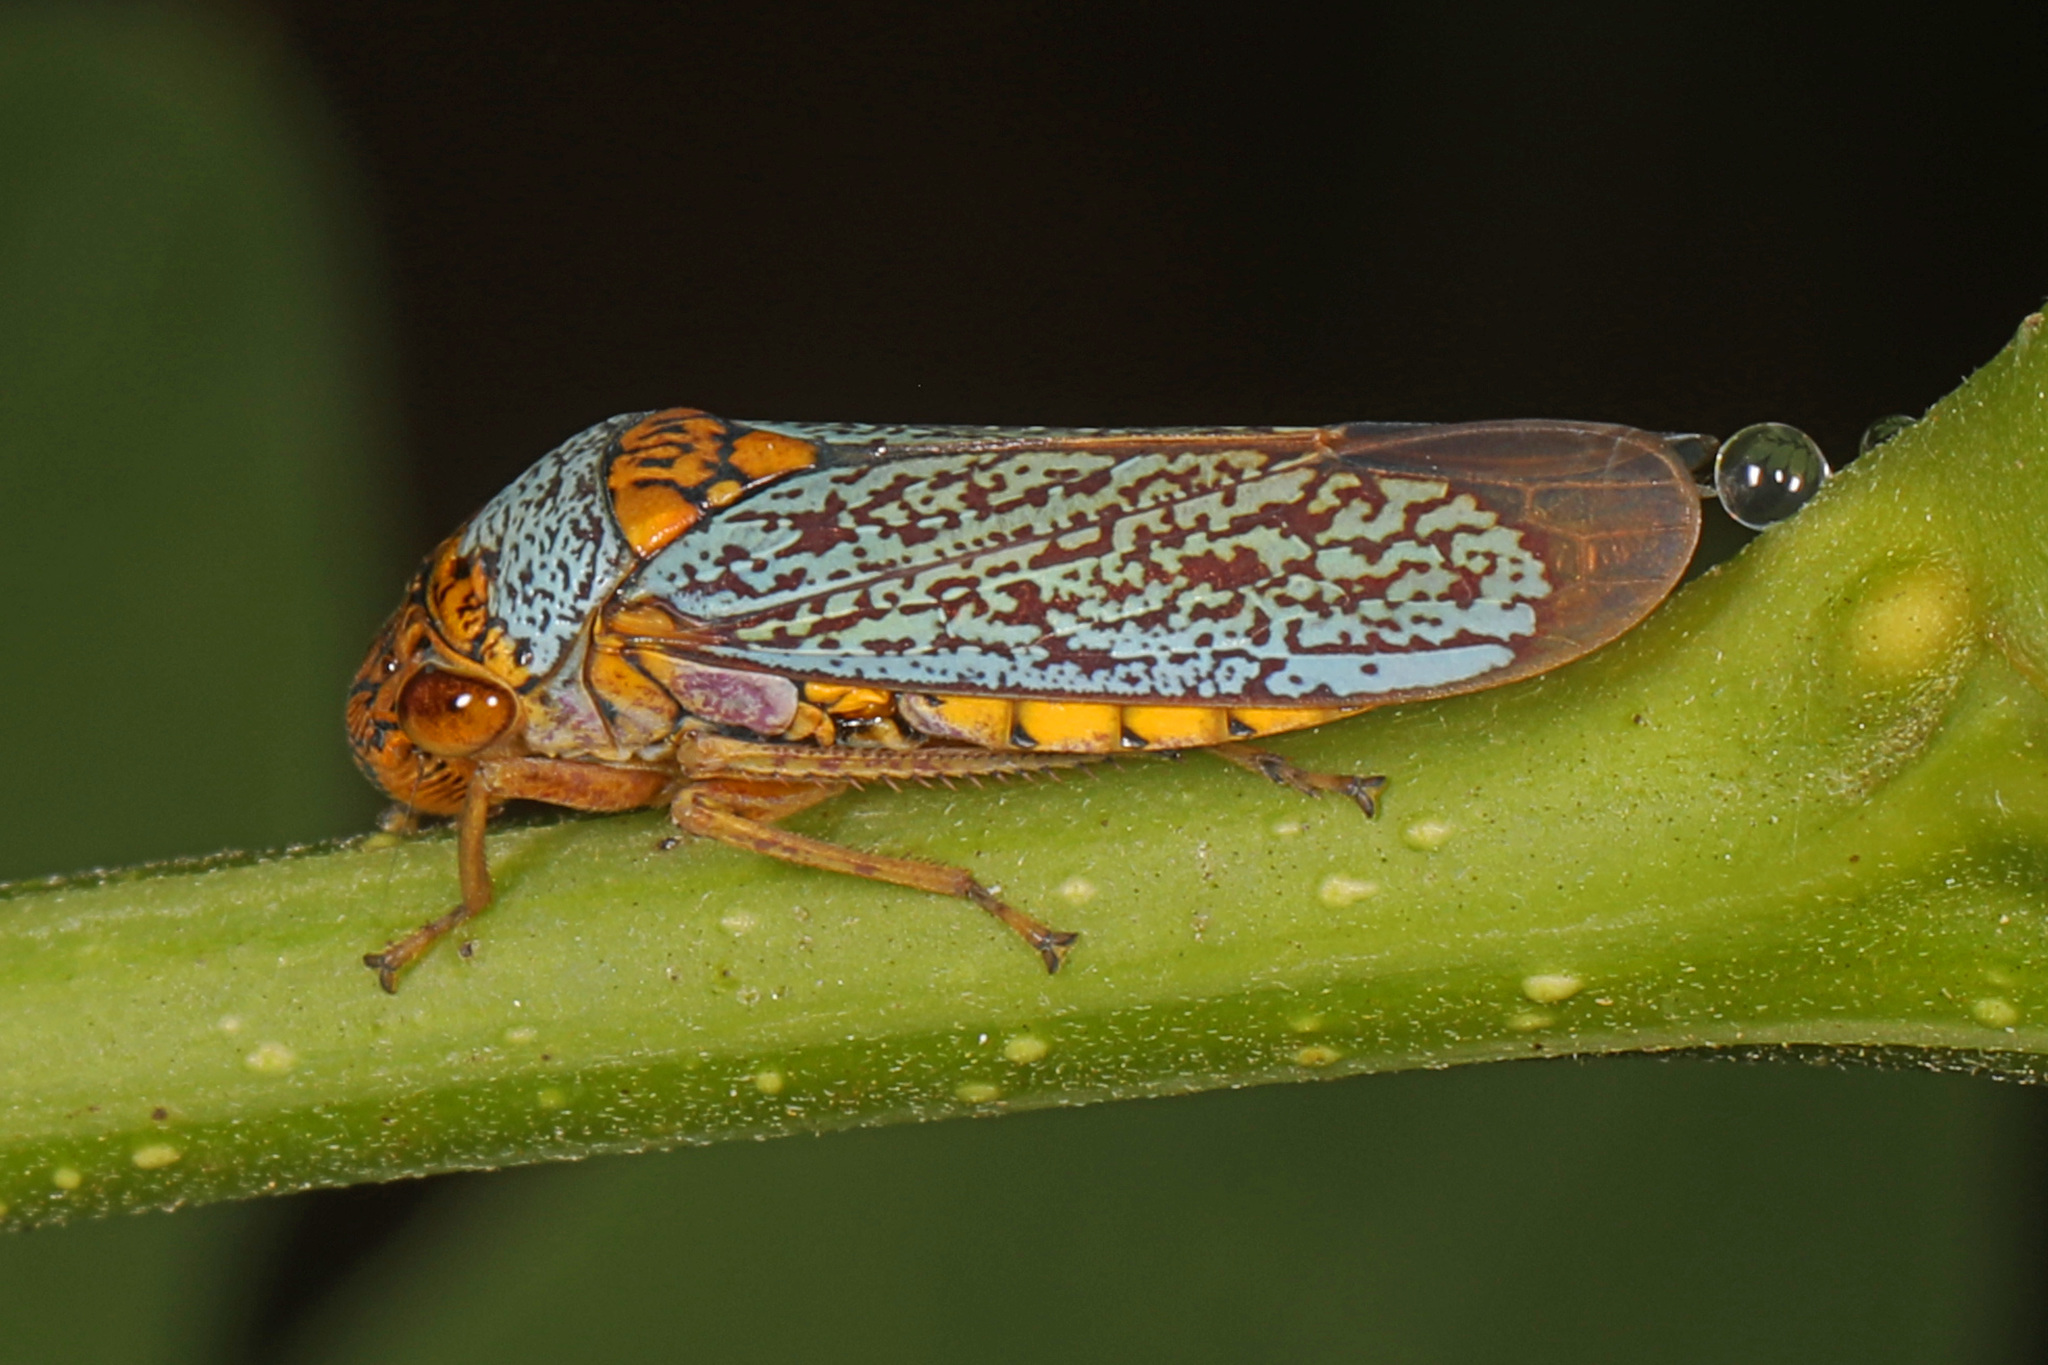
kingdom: Animalia
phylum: Arthropoda
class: Insecta
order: Hemiptera
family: Cicadellidae
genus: Oncometopia
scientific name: Oncometopia orbona
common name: Broad-headed sharpshooter
